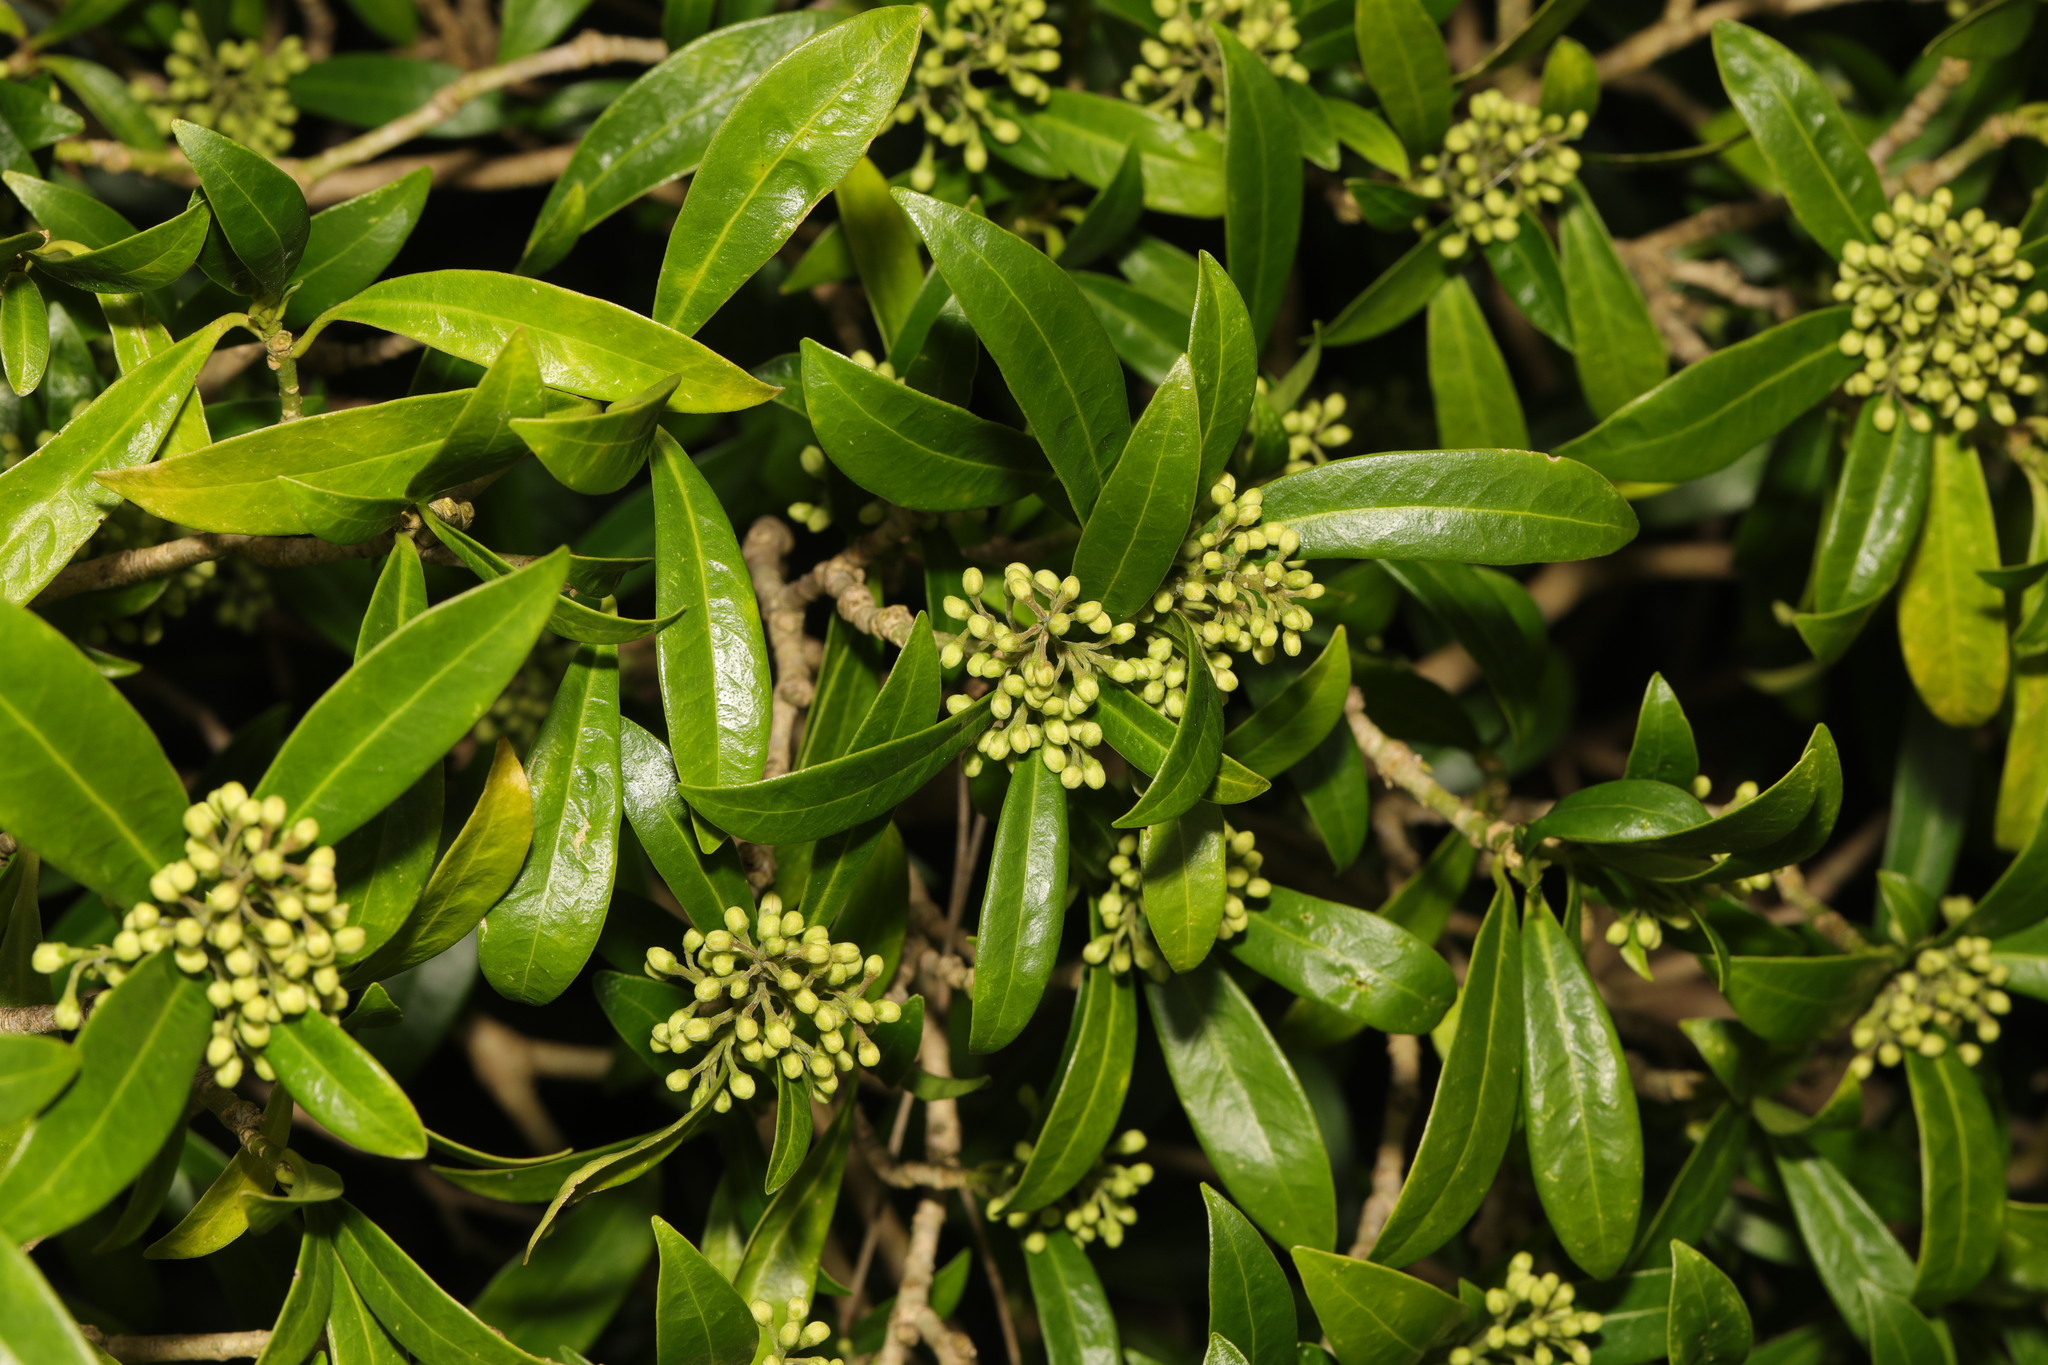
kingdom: Plantae
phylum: Tracheophyta
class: Magnoliopsida
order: Sapindales
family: Rutaceae
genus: Skimmia
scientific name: Skimmia japonica
